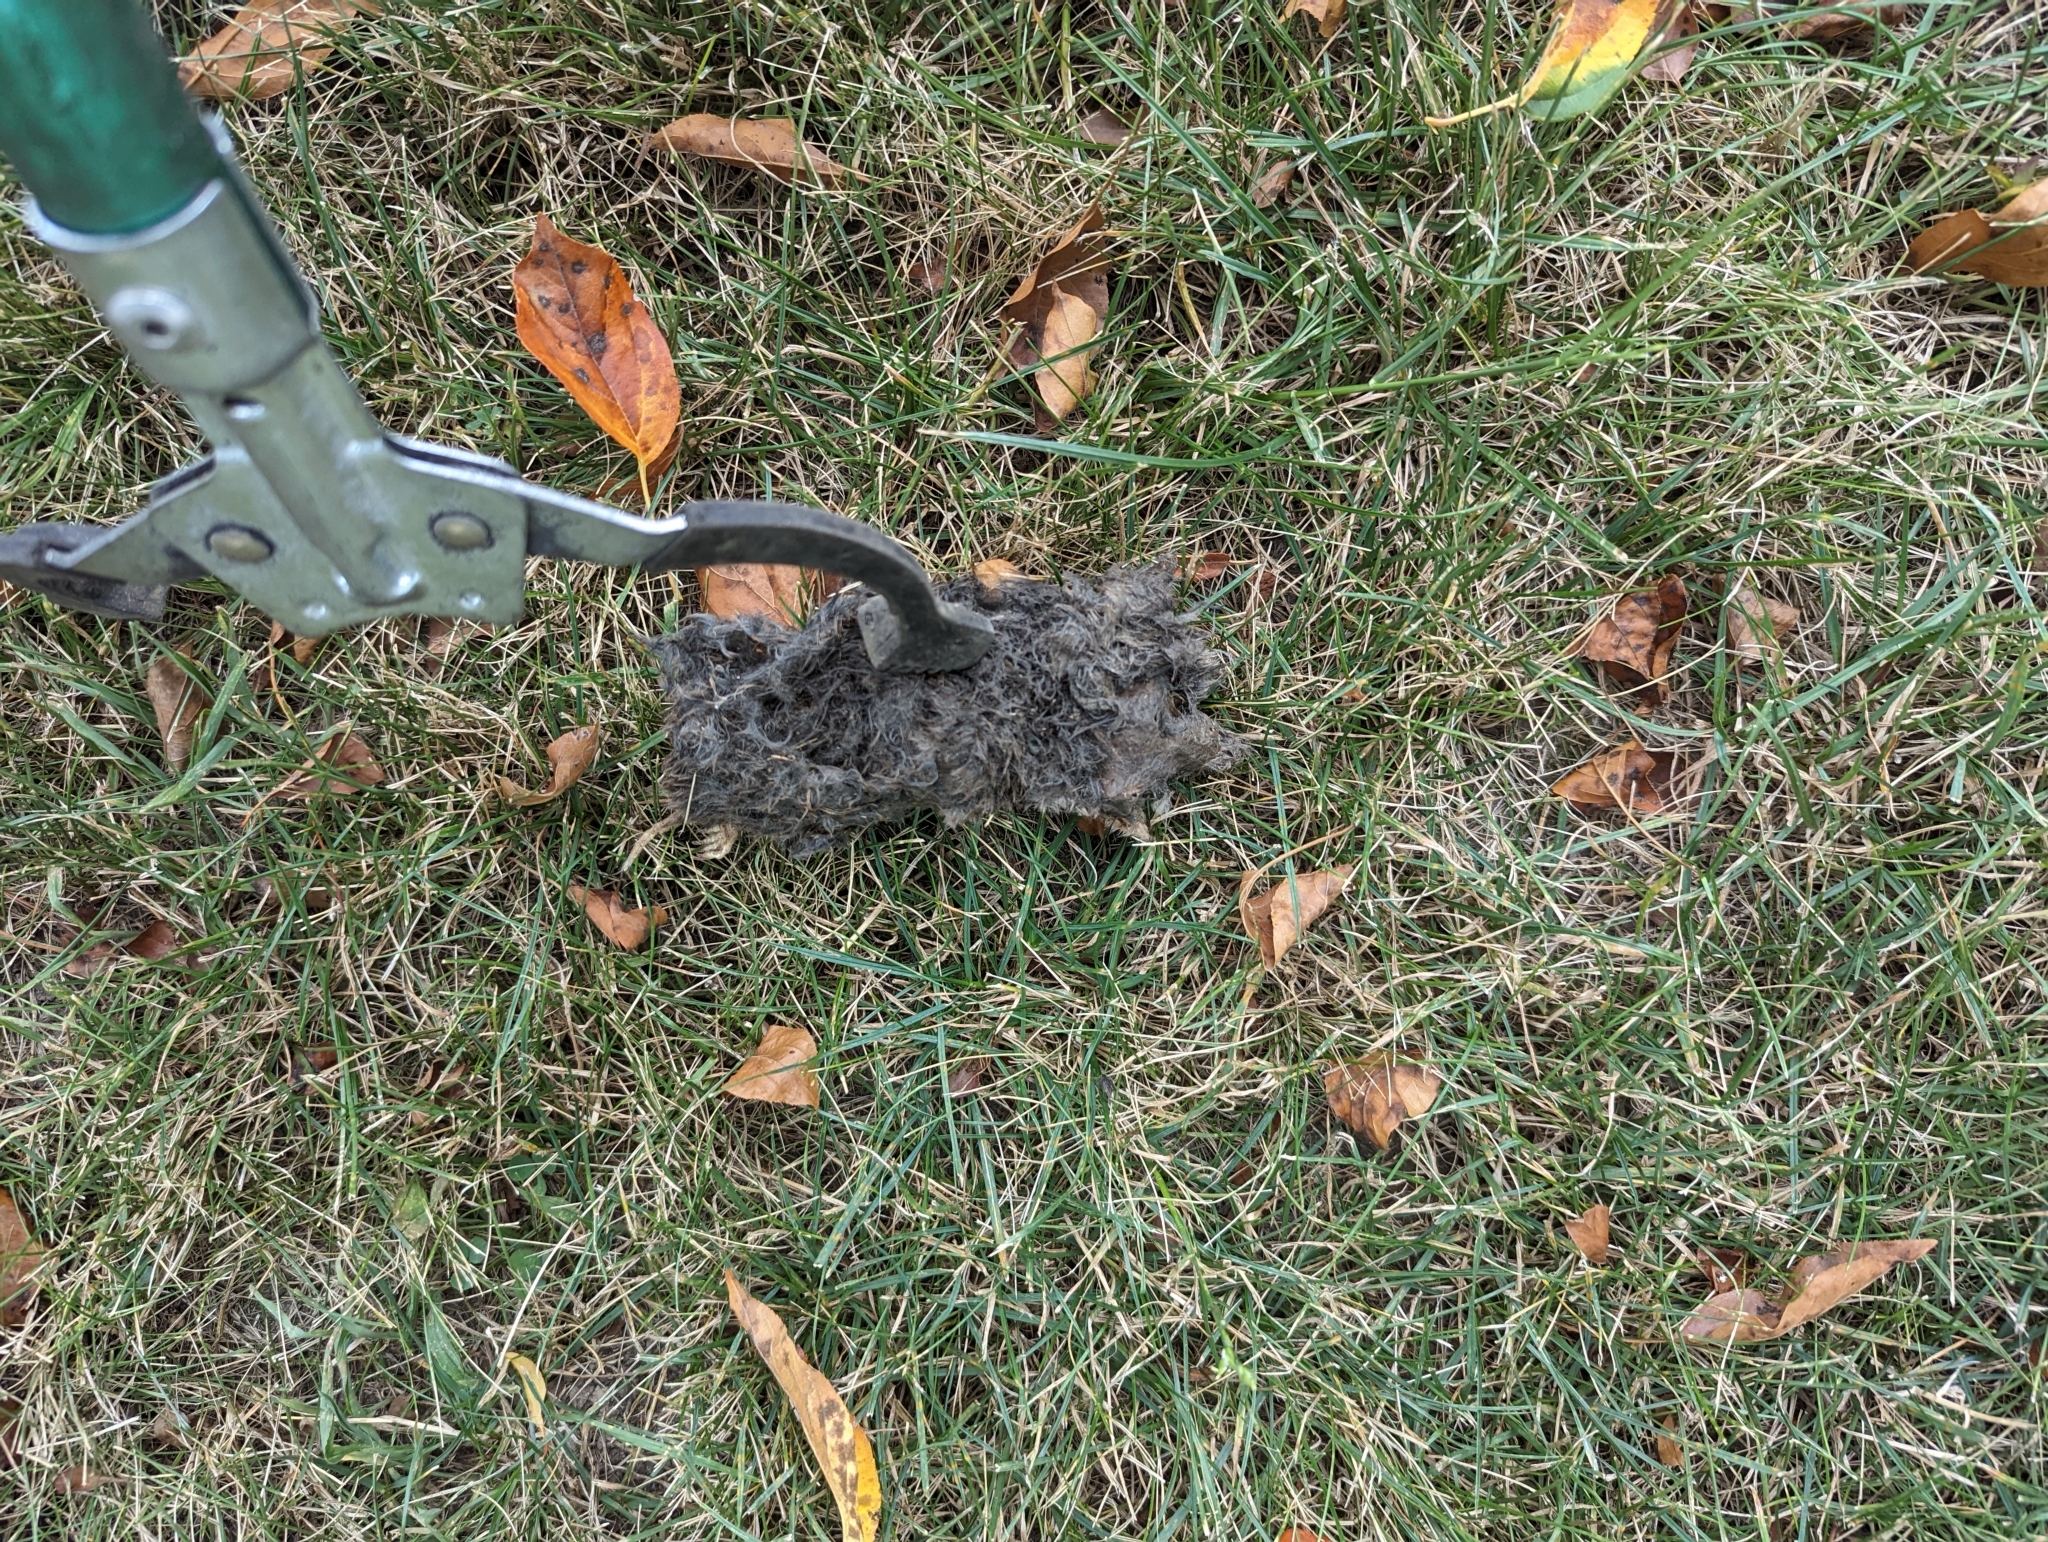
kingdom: Animalia
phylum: Chordata
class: Mammalia
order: Soricomorpha
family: Talpidae
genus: Scalopus
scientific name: Scalopus aquaticus
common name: Eastern mole
